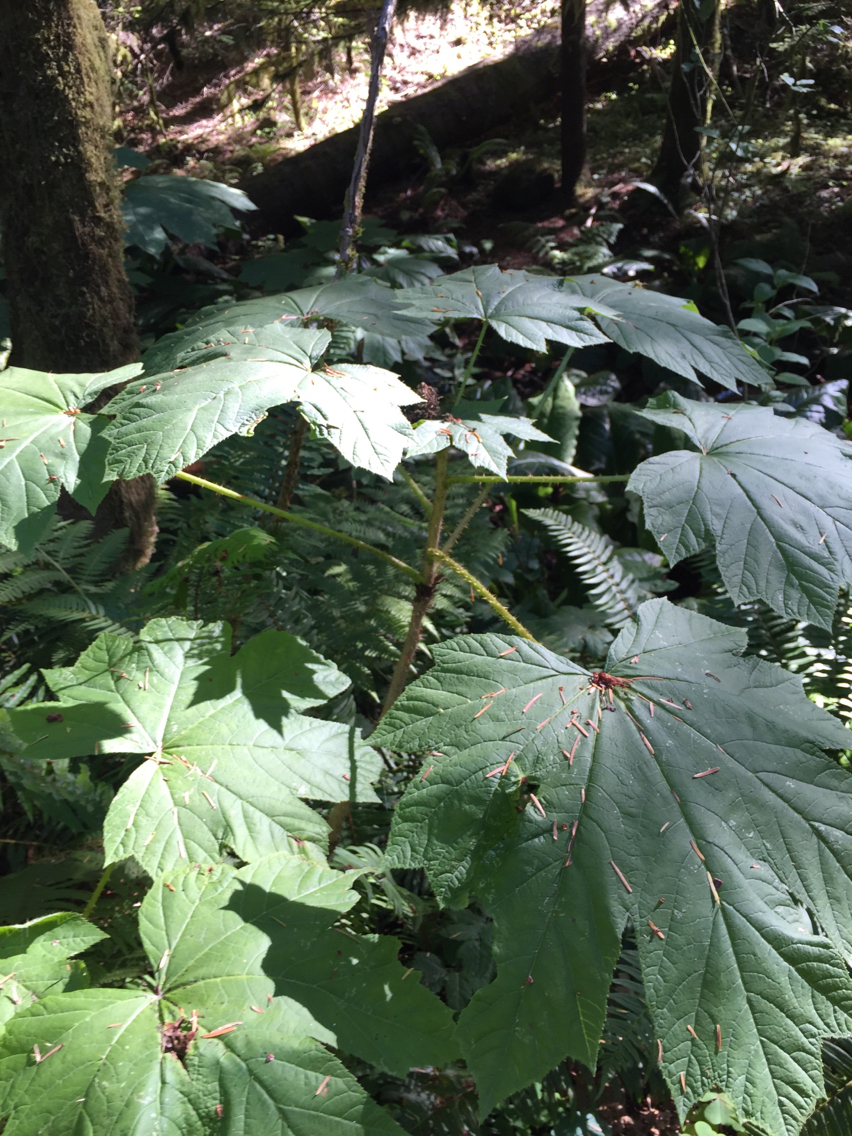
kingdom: Plantae
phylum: Tracheophyta
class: Magnoliopsida
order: Apiales
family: Araliaceae
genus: Oplopanax
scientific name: Oplopanax horridus
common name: Devil's walking-stick
